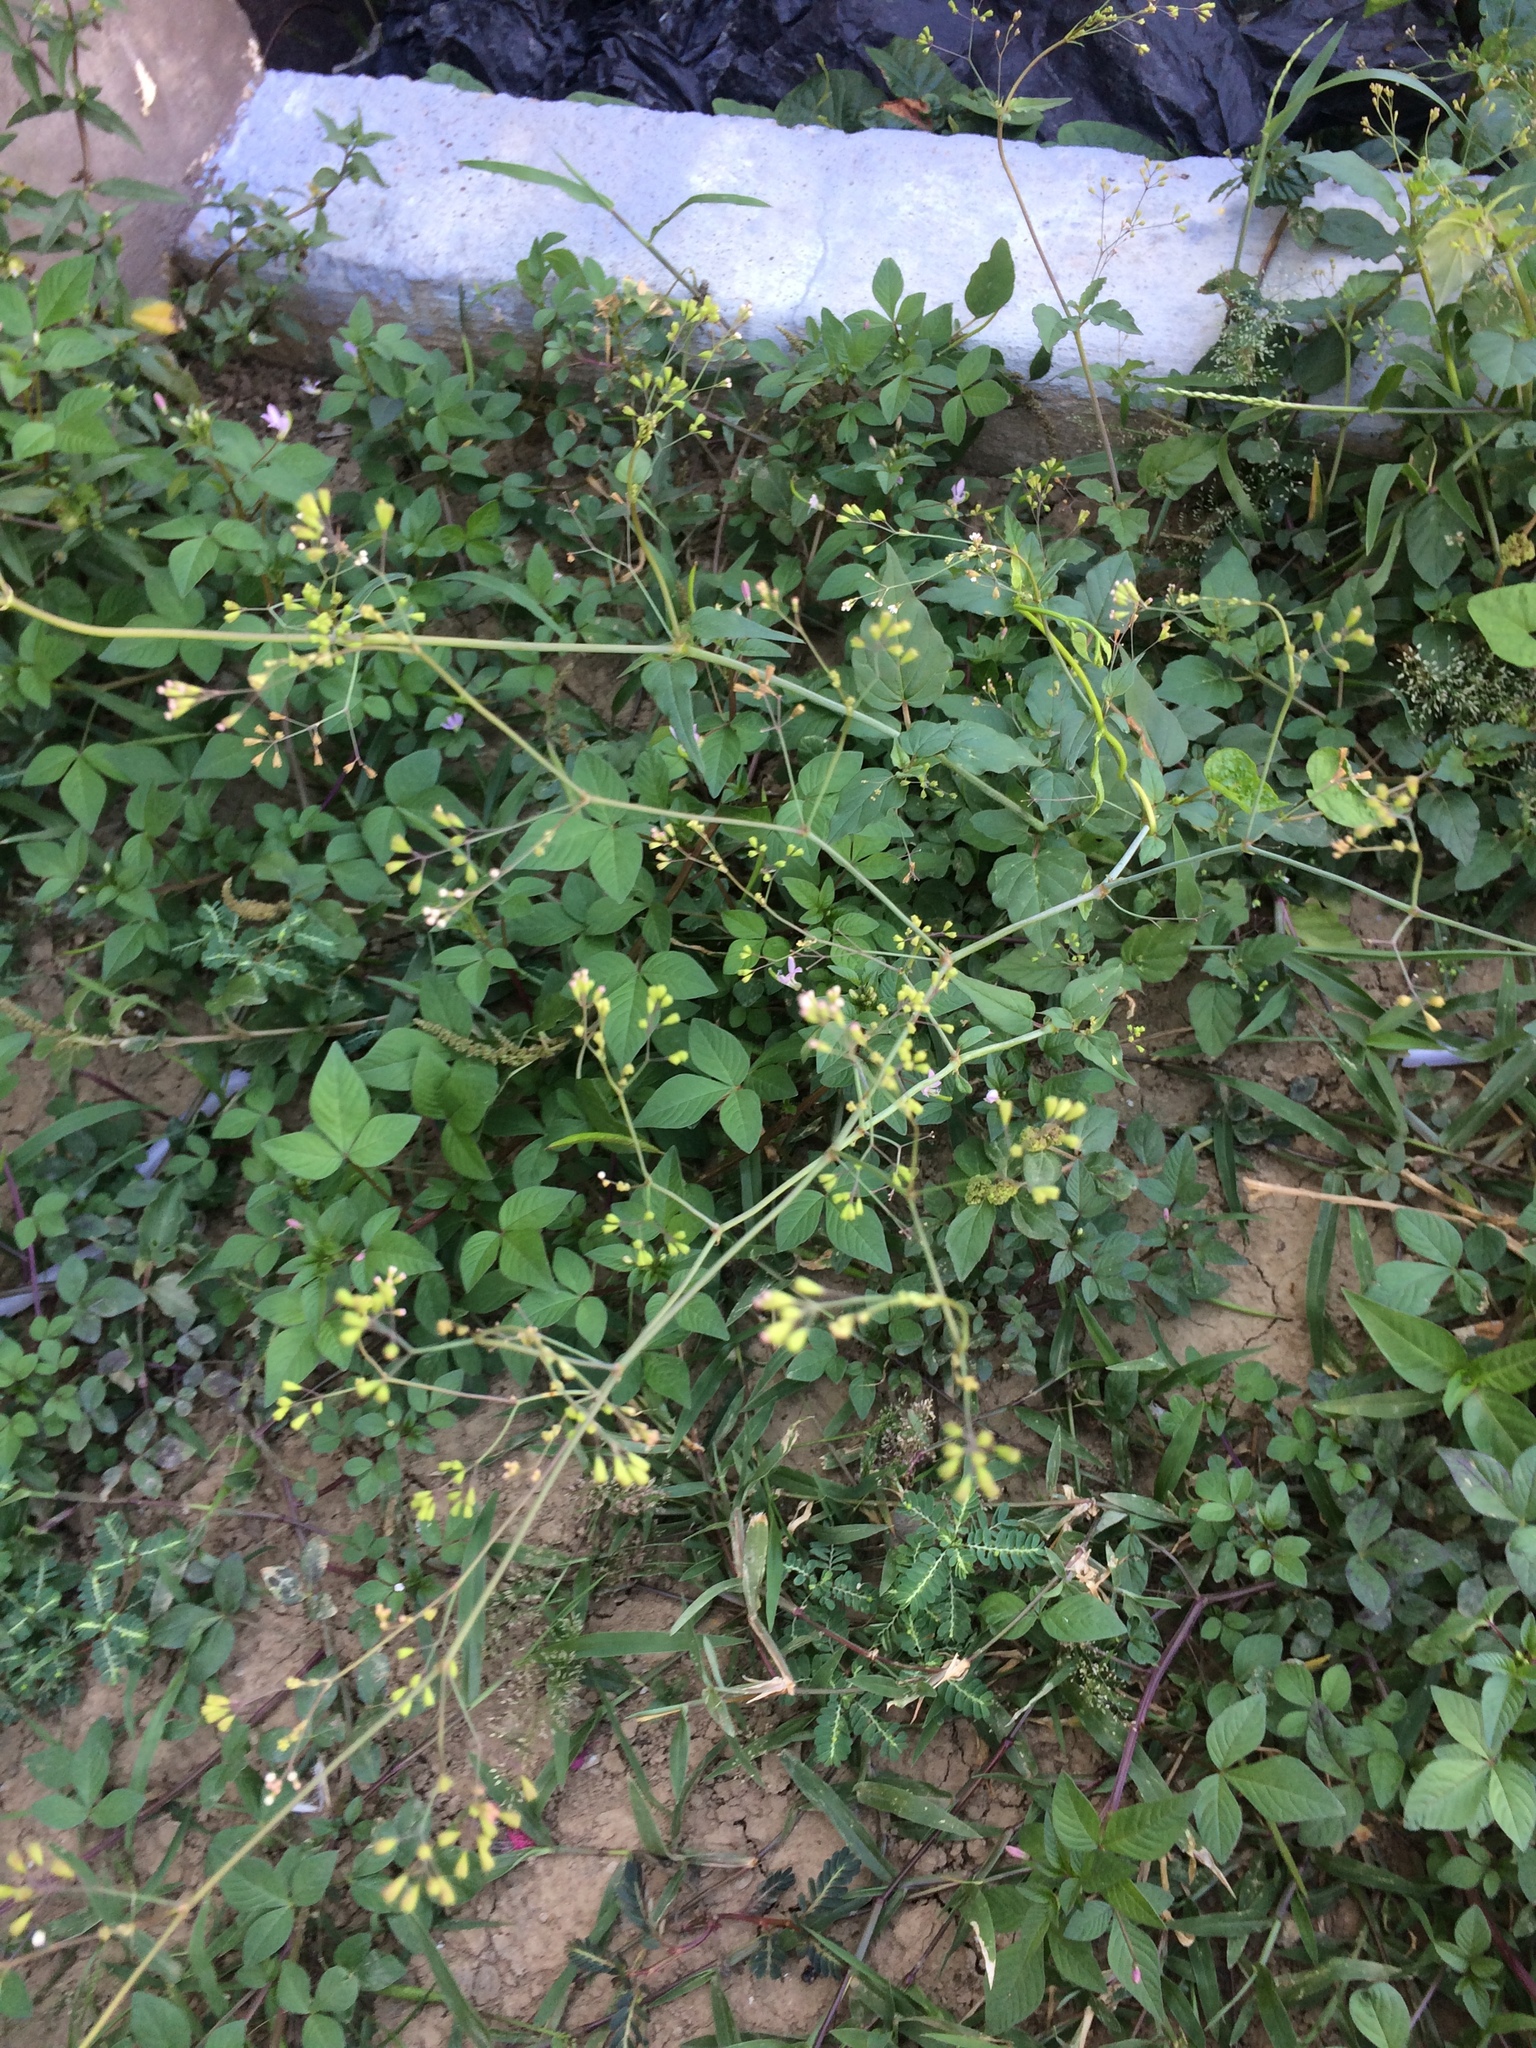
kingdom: Plantae
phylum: Tracheophyta
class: Magnoliopsida
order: Caryophyllales
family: Nyctaginaceae
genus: Boerhavia
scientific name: Boerhavia erecta
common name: Erect spiderling
